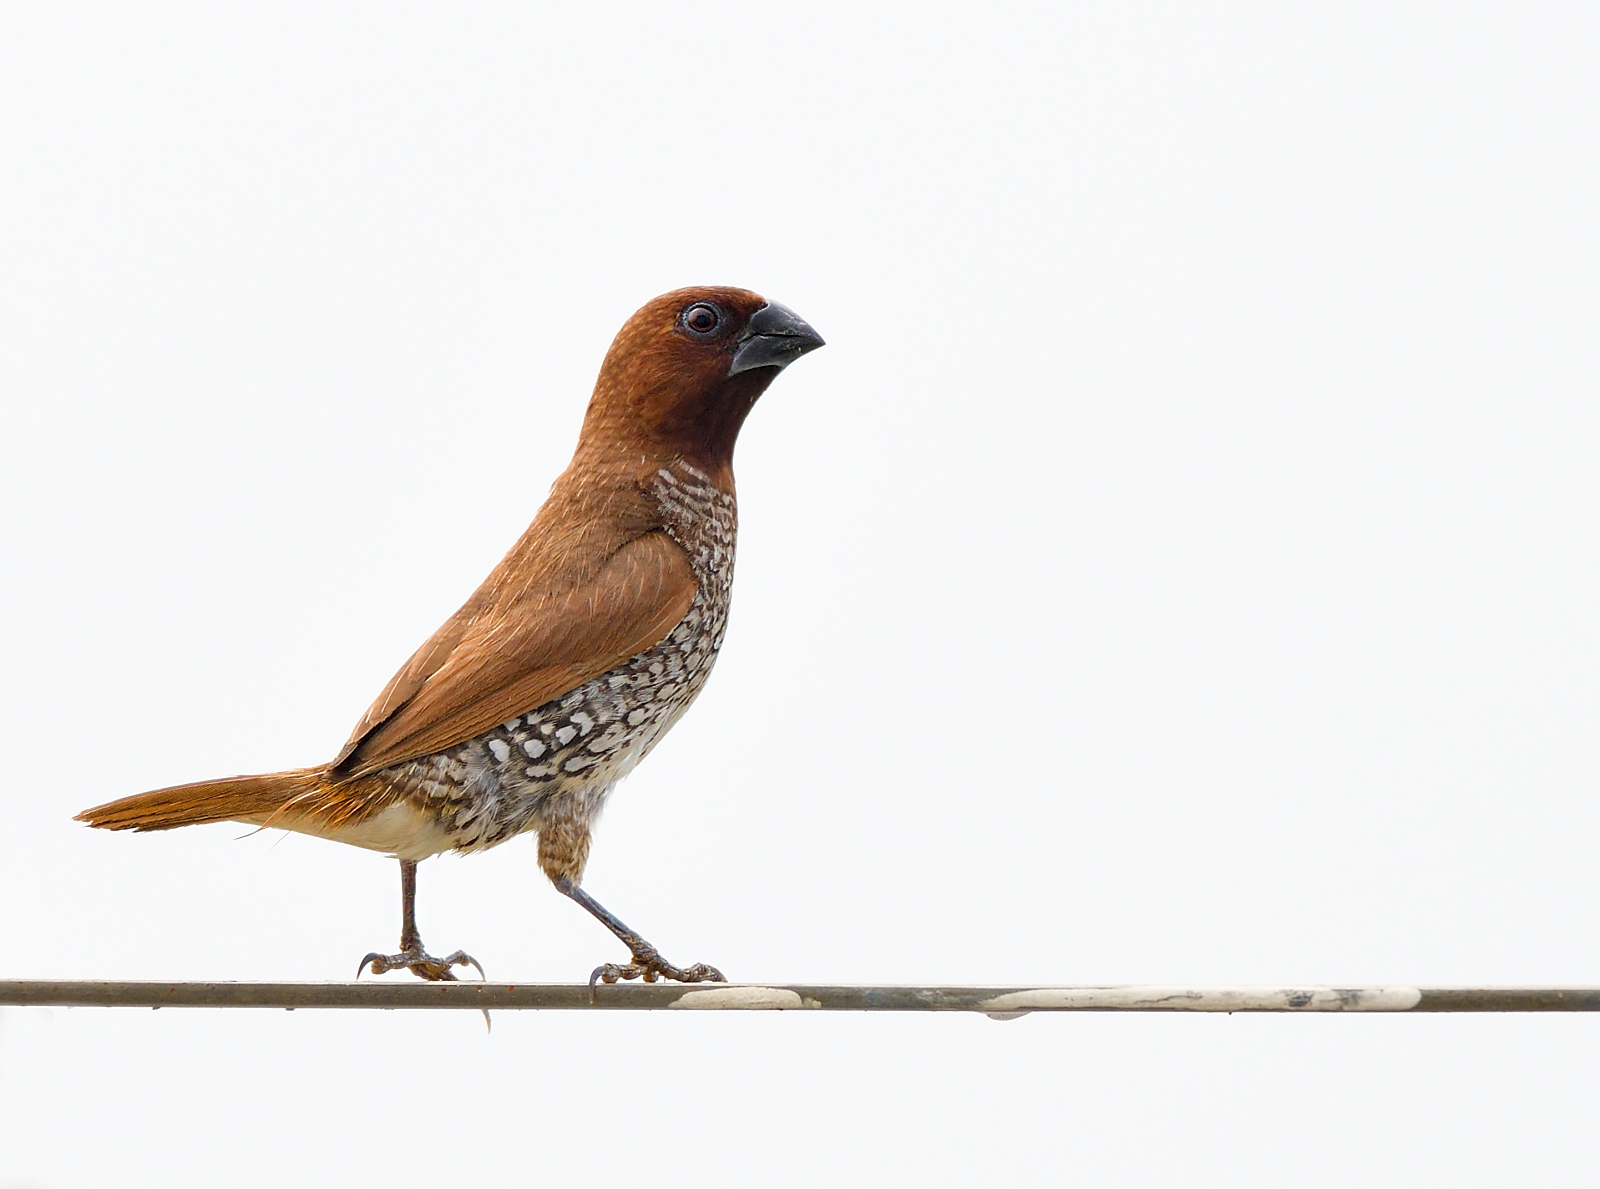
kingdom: Animalia
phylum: Chordata
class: Aves
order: Passeriformes
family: Estrildidae
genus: Lonchura
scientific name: Lonchura punctulata
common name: Scaly-breasted munia
